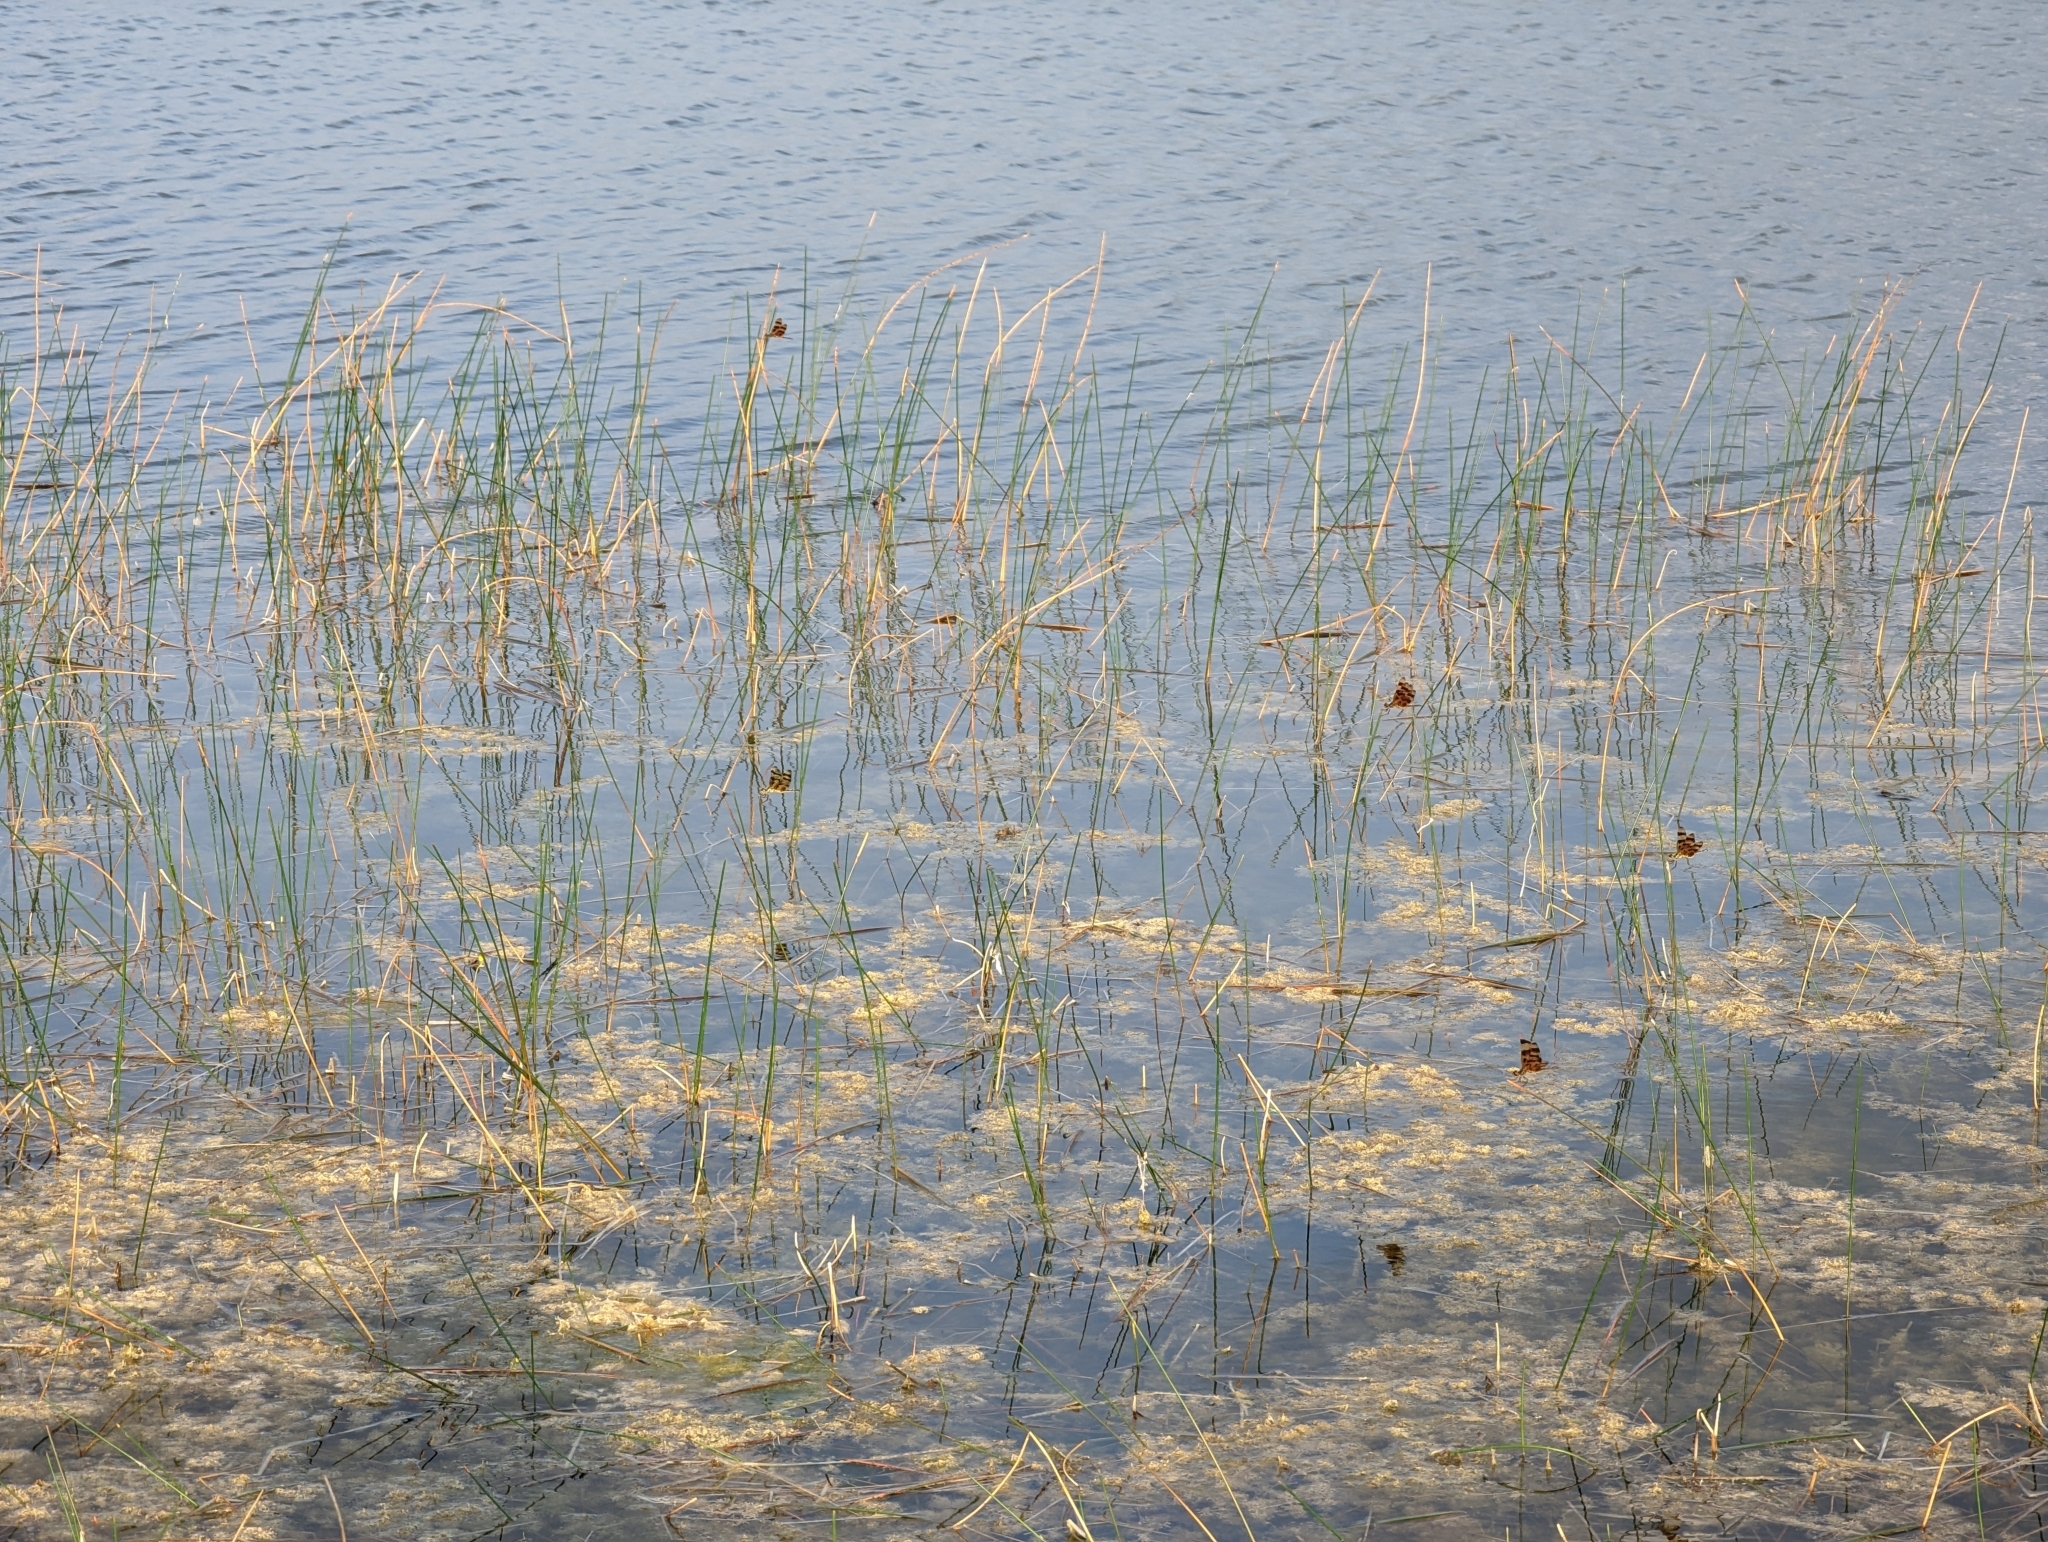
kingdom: Animalia
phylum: Arthropoda
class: Insecta
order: Odonata
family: Libellulidae
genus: Celithemis
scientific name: Celithemis eponina
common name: Halloween pennant
